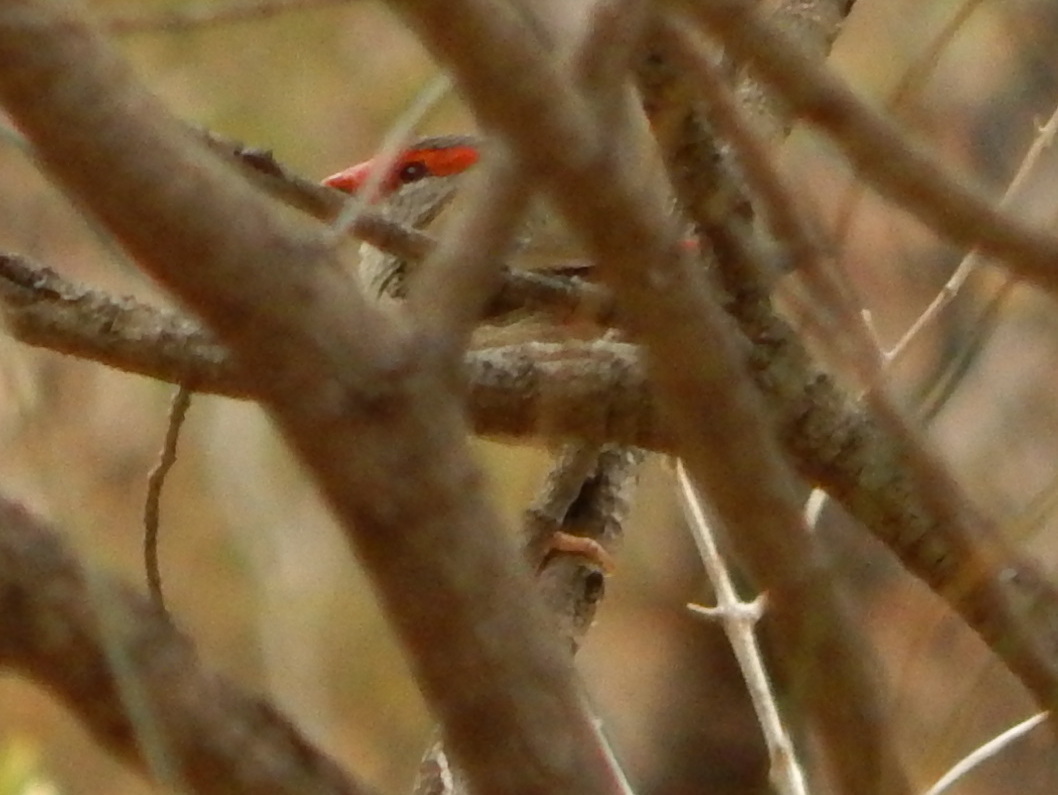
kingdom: Animalia
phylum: Chordata
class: Aves
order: Passeriformes
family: Estrildidae
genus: Neochmia
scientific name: Neochmia temporalis
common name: Red-browed finch
